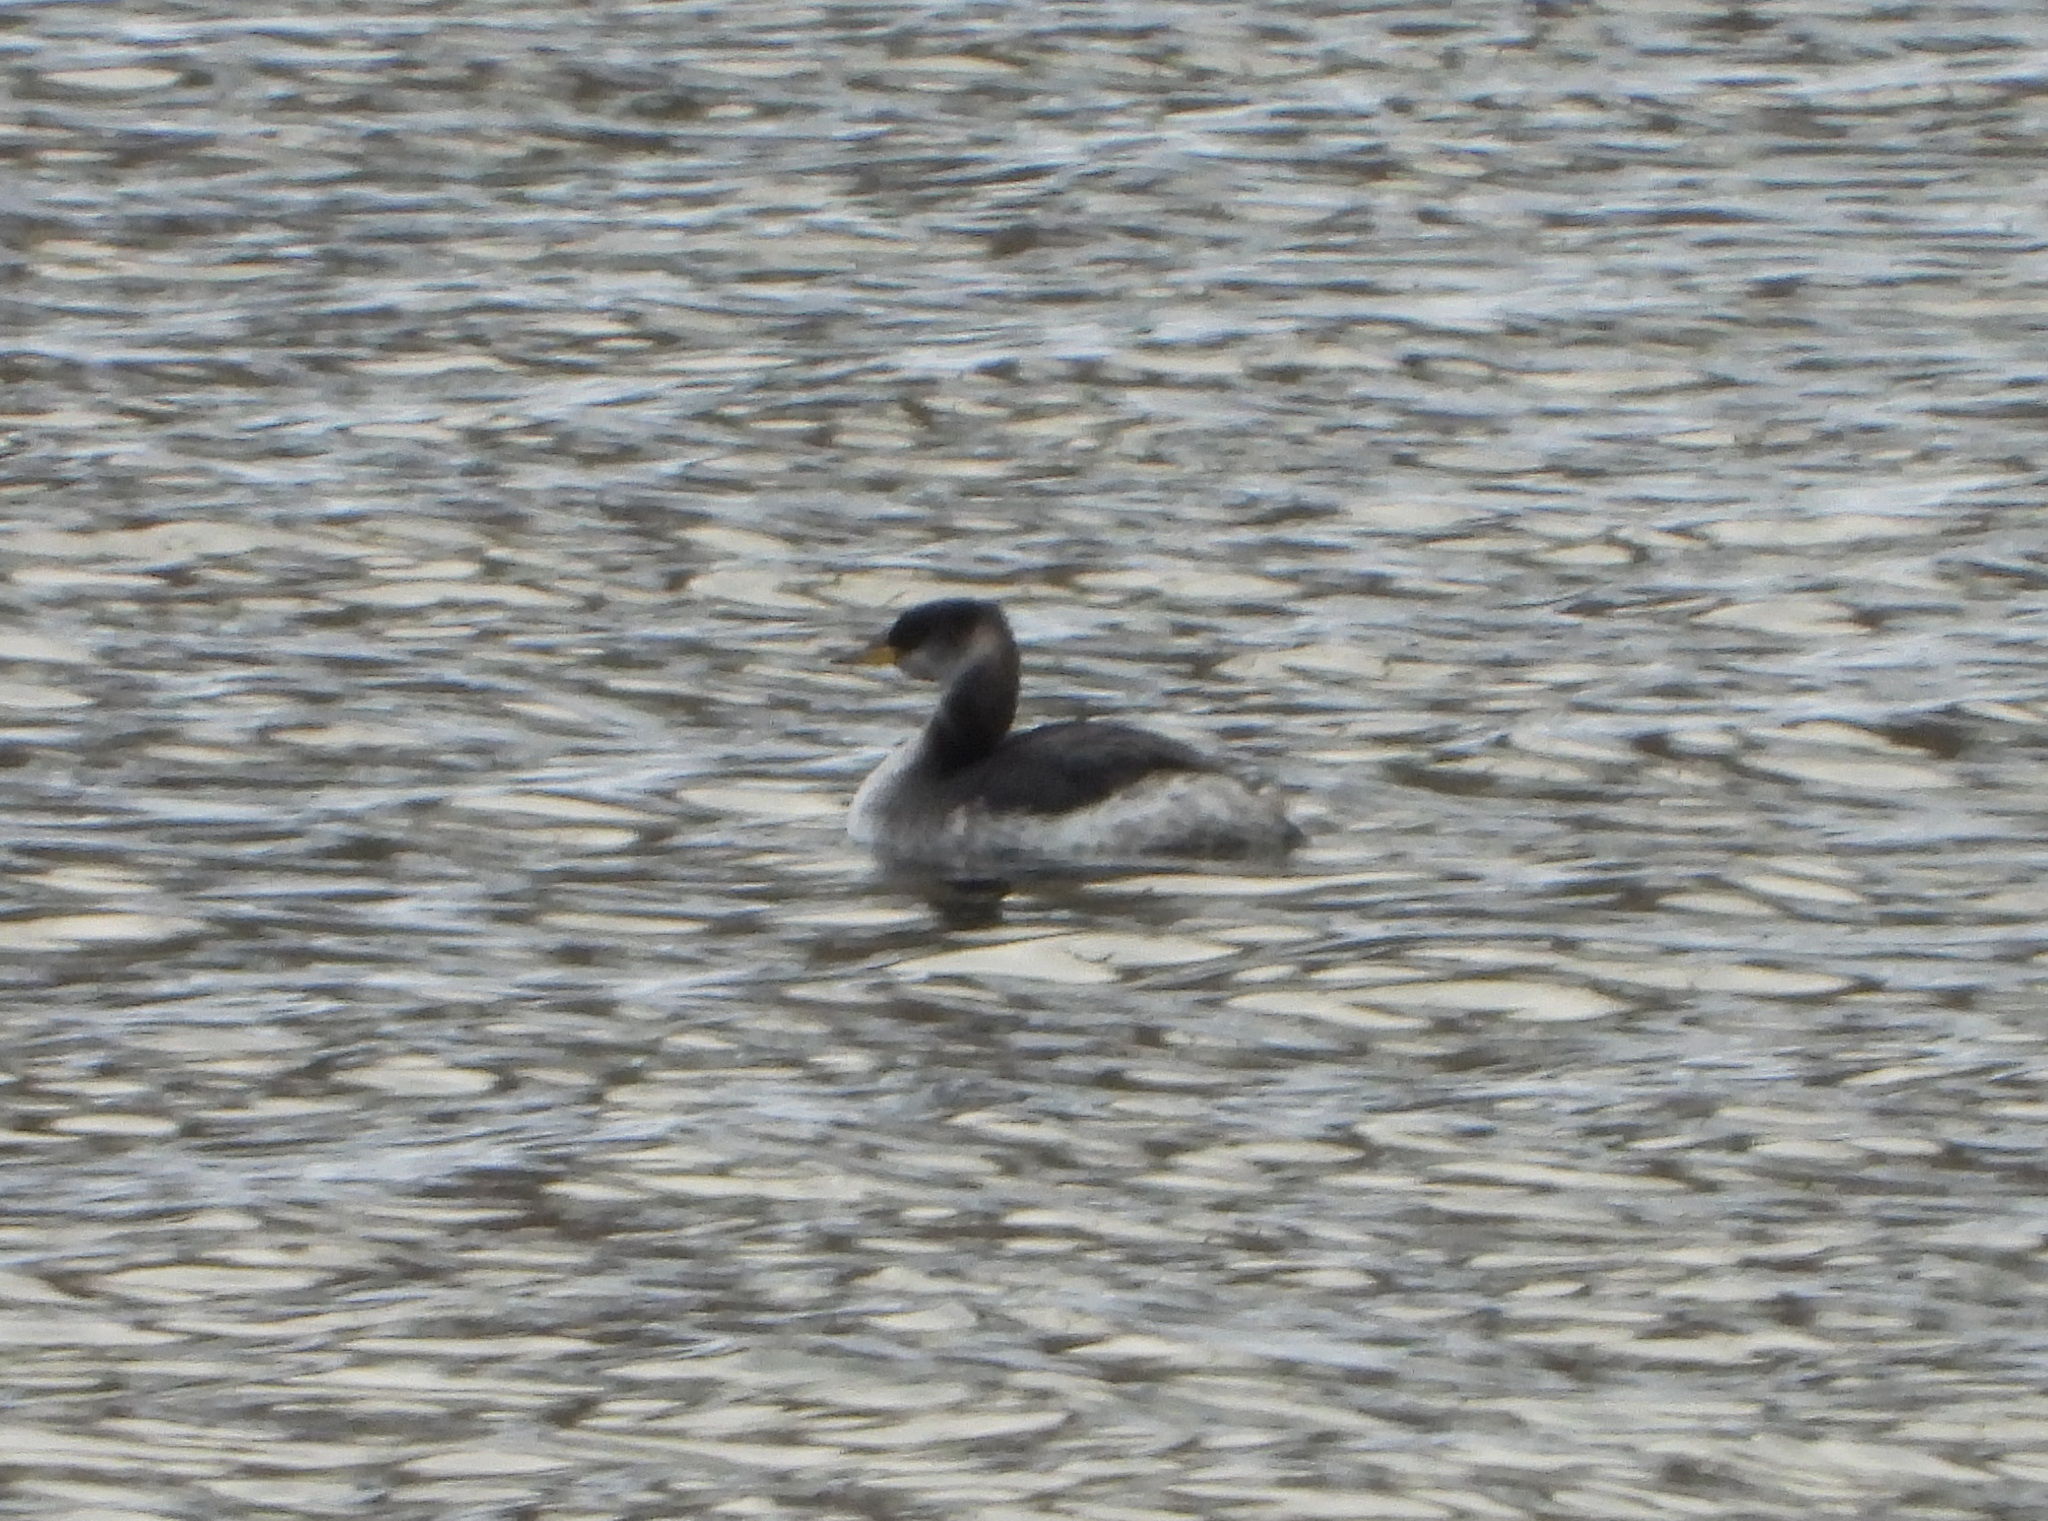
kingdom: Animalia
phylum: Chordata
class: Aves
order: Podicipediformes
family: Podicipedidae
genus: Podiceps
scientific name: Podiceps grisegena
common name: Red-necked grebe
